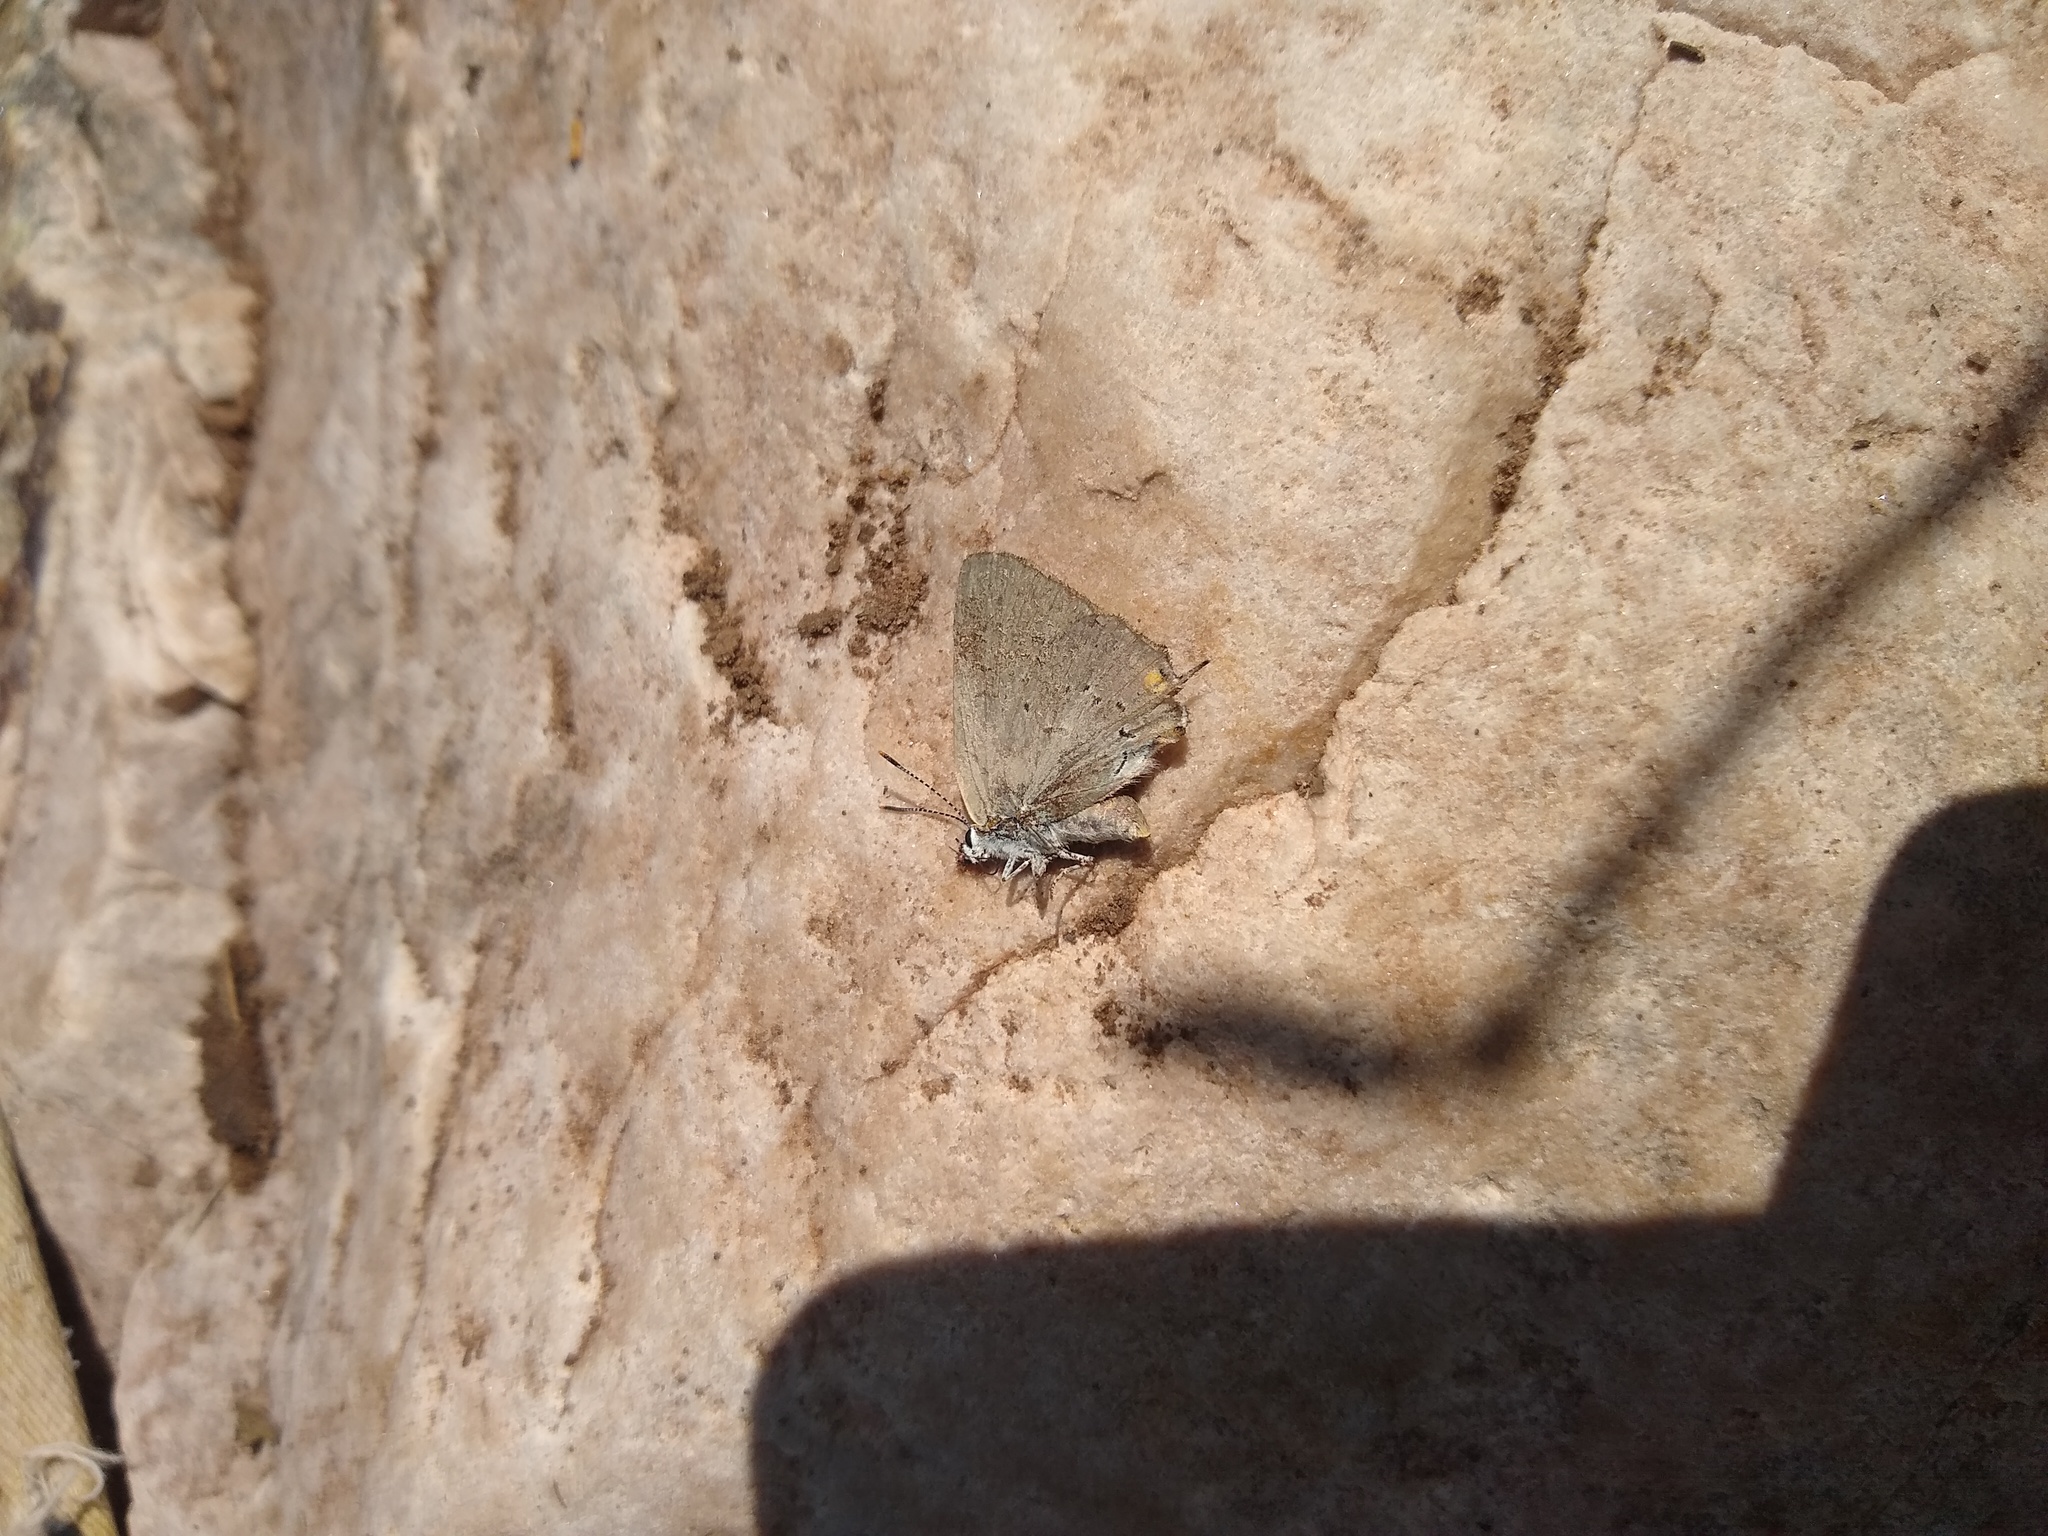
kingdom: Animalia
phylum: Arthropoda
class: Insecta
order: Lepidoptera
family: Lycaenidae
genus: Strymon
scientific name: Strymon sylvinus
